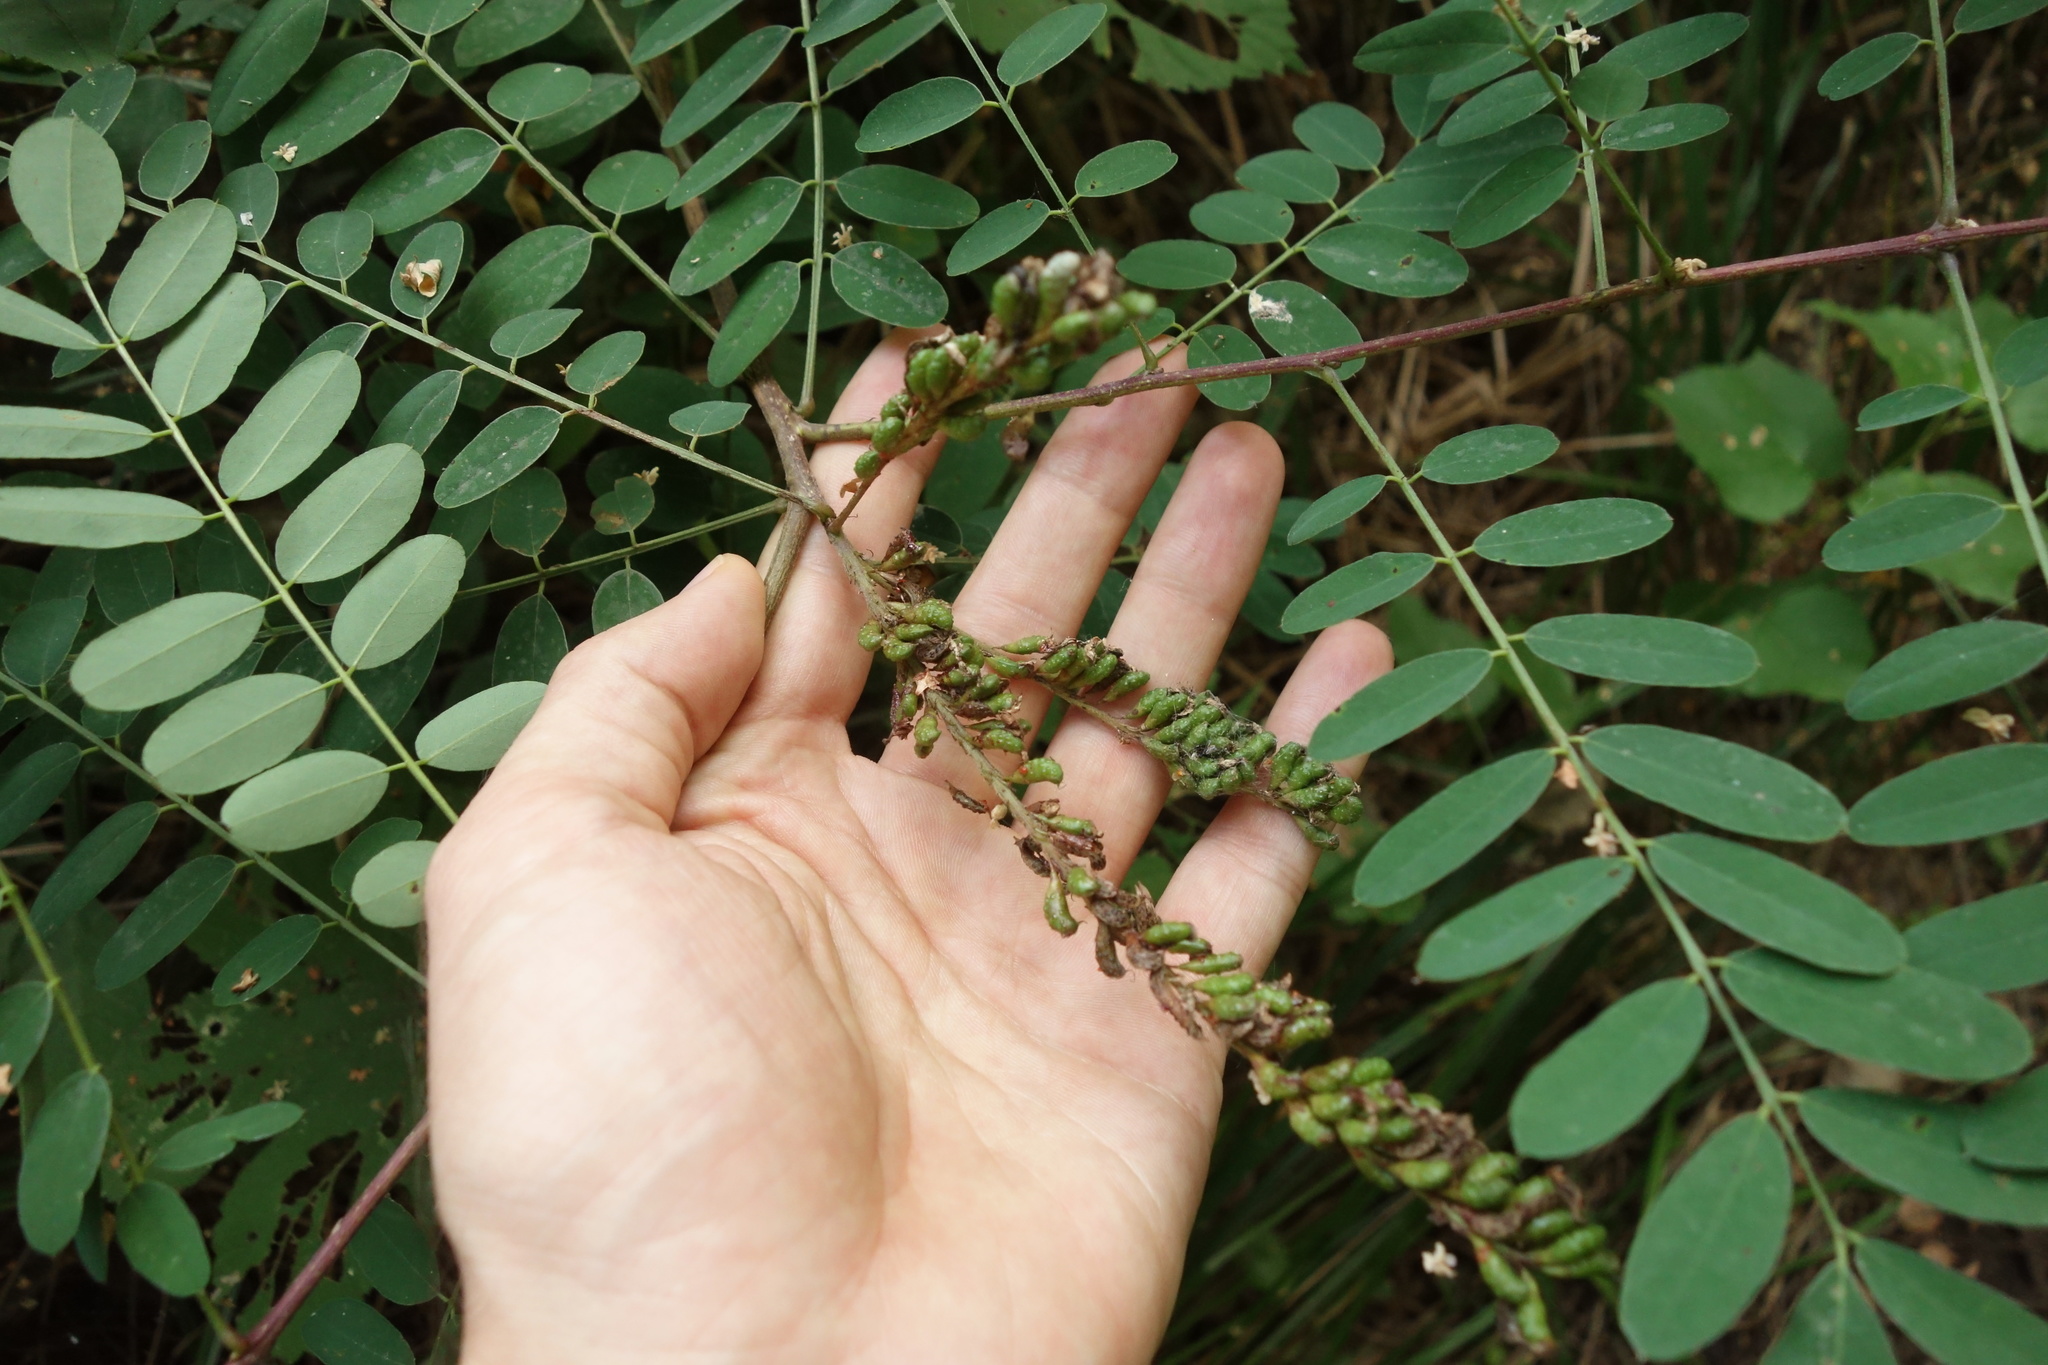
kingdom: Plantae
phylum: Tracheophyta
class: Magnoliopsida
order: Fabales
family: Fabaceae
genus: Amorpha
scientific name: Amorpha fruticosa
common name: False indigo
